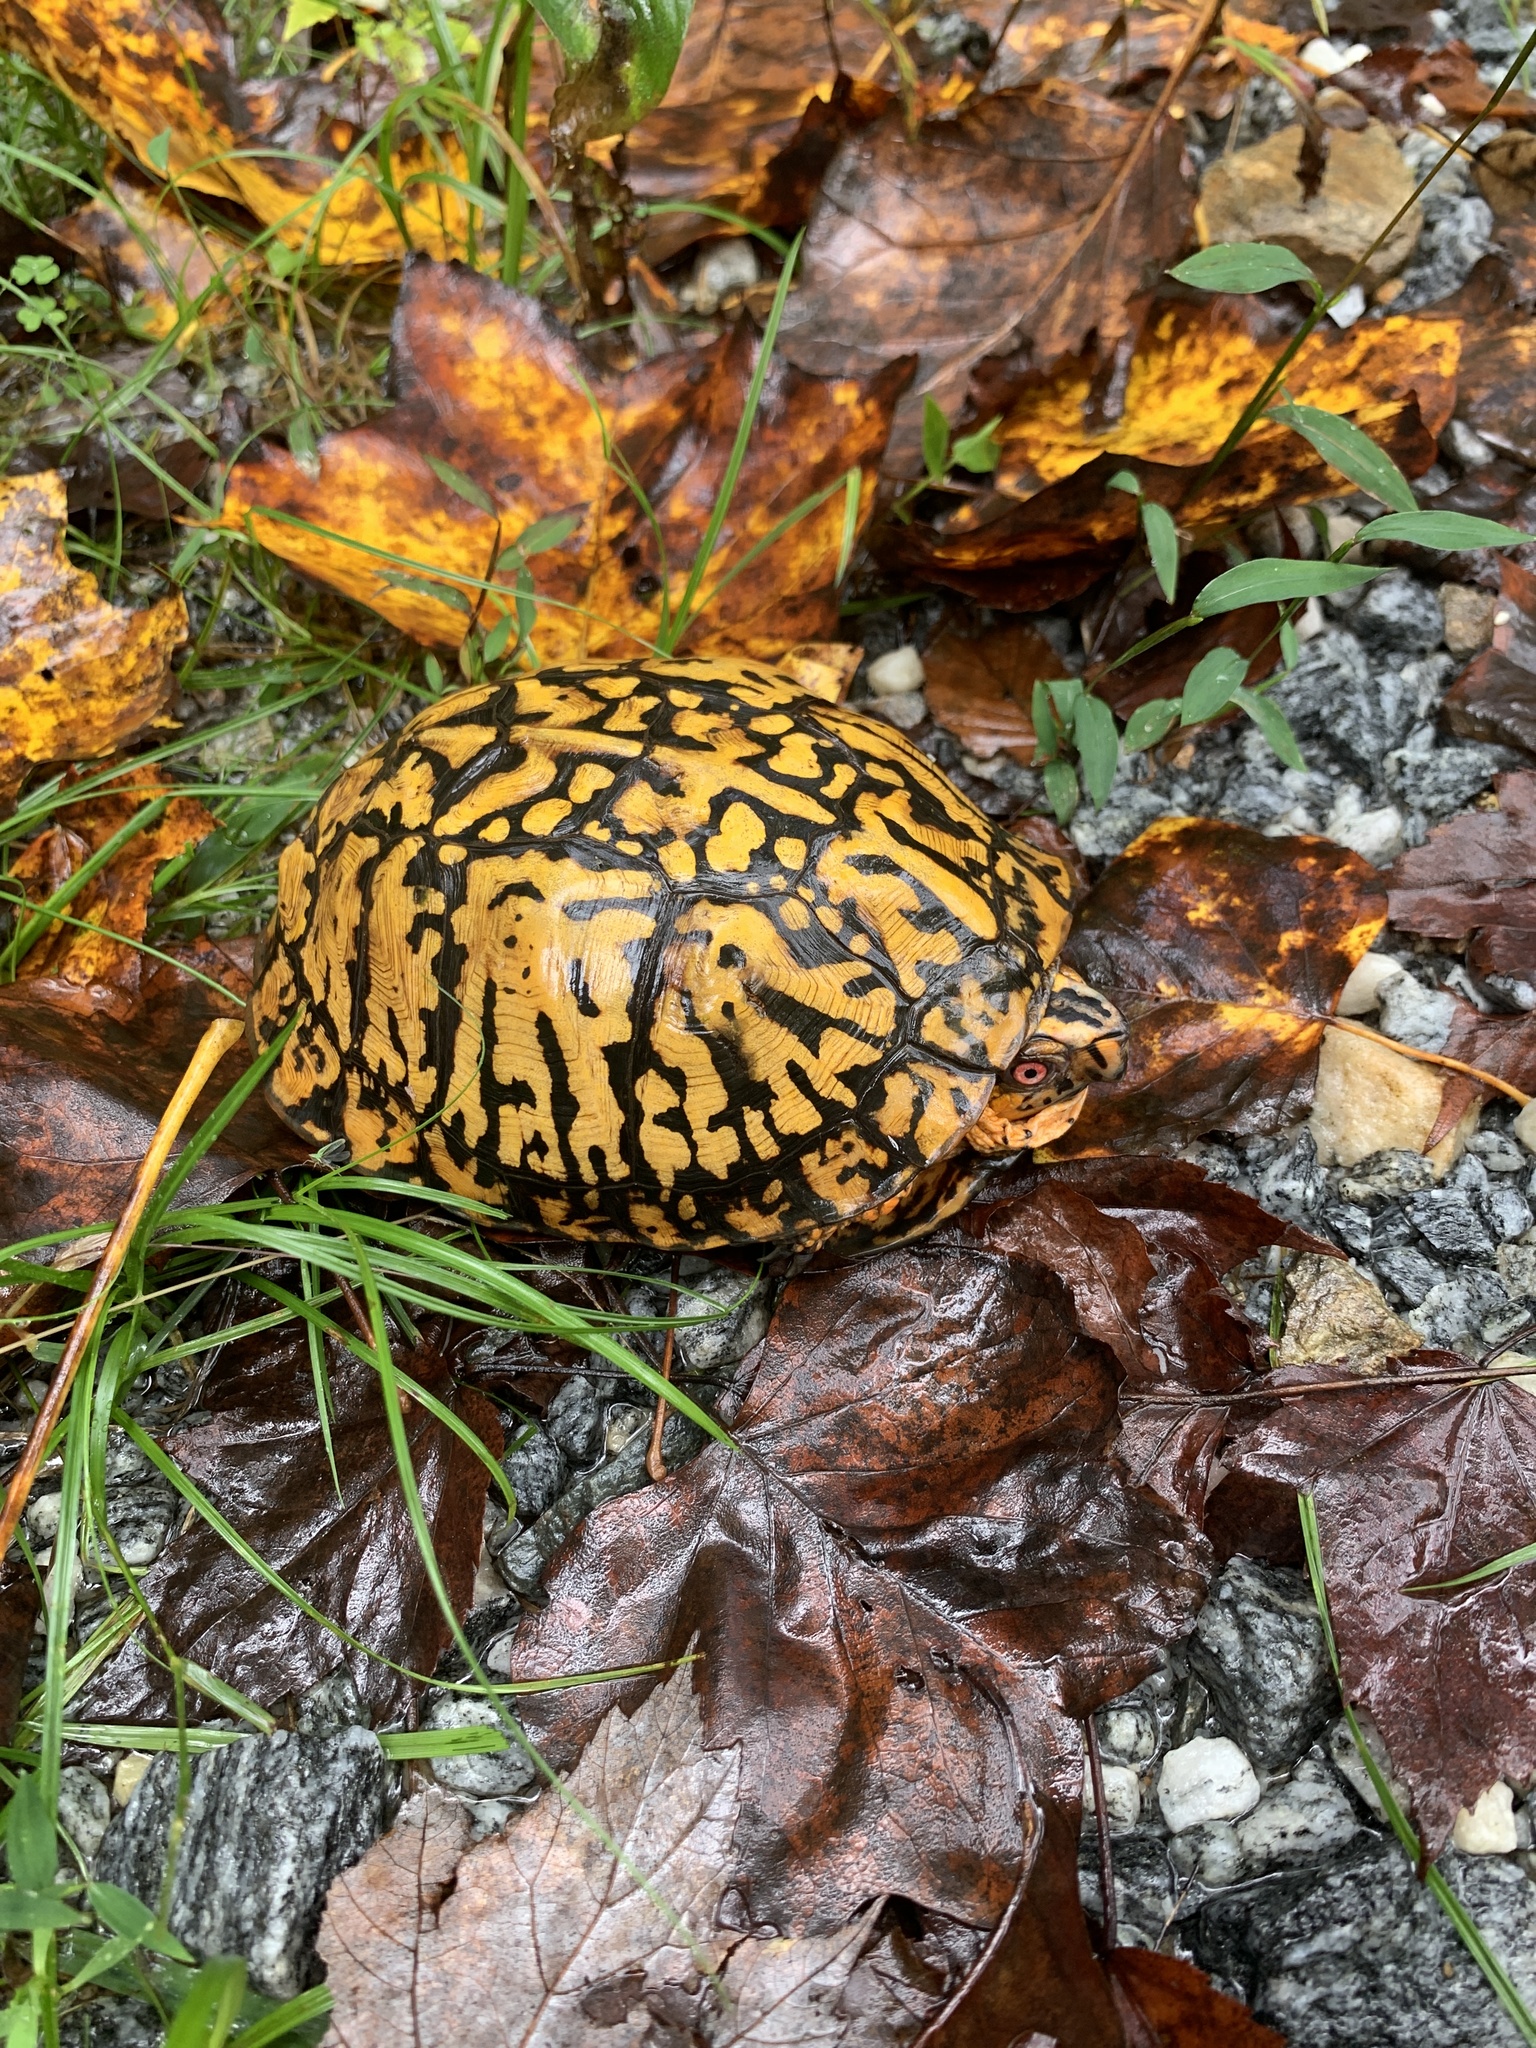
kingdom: Animalia
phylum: Chordata
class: Testudines
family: Emydidae
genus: Terrapene
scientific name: Terrapene carolina
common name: Common box turtle
